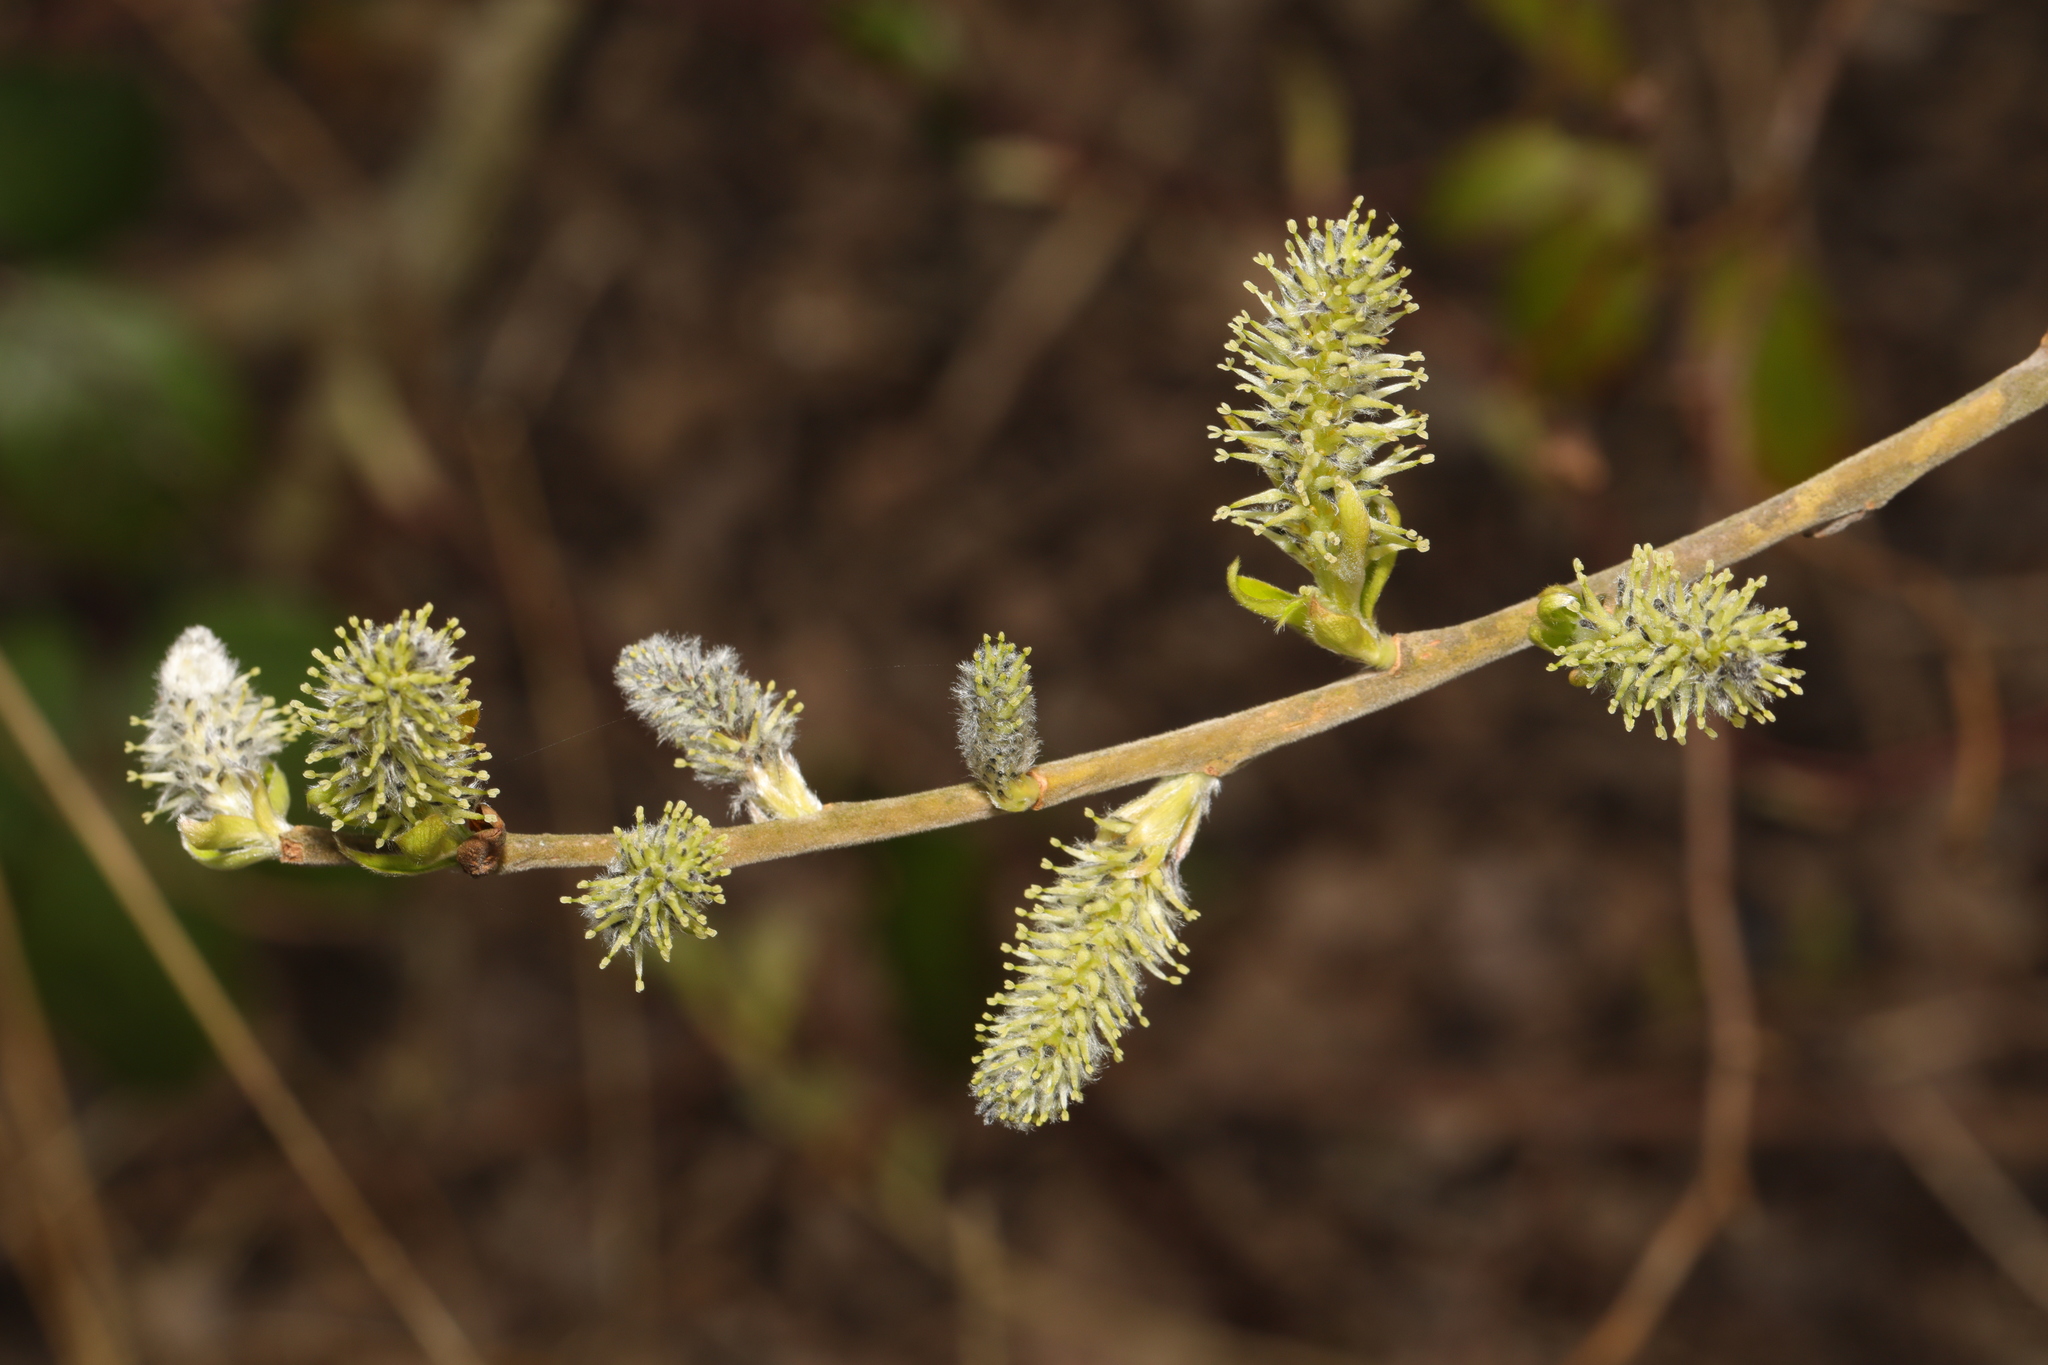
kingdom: Plantae
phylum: Tracheophyta
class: Magnoliopsida
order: Malpighiales
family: Salicaceae
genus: Salix
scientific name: Salix caprea
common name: Goat willow
